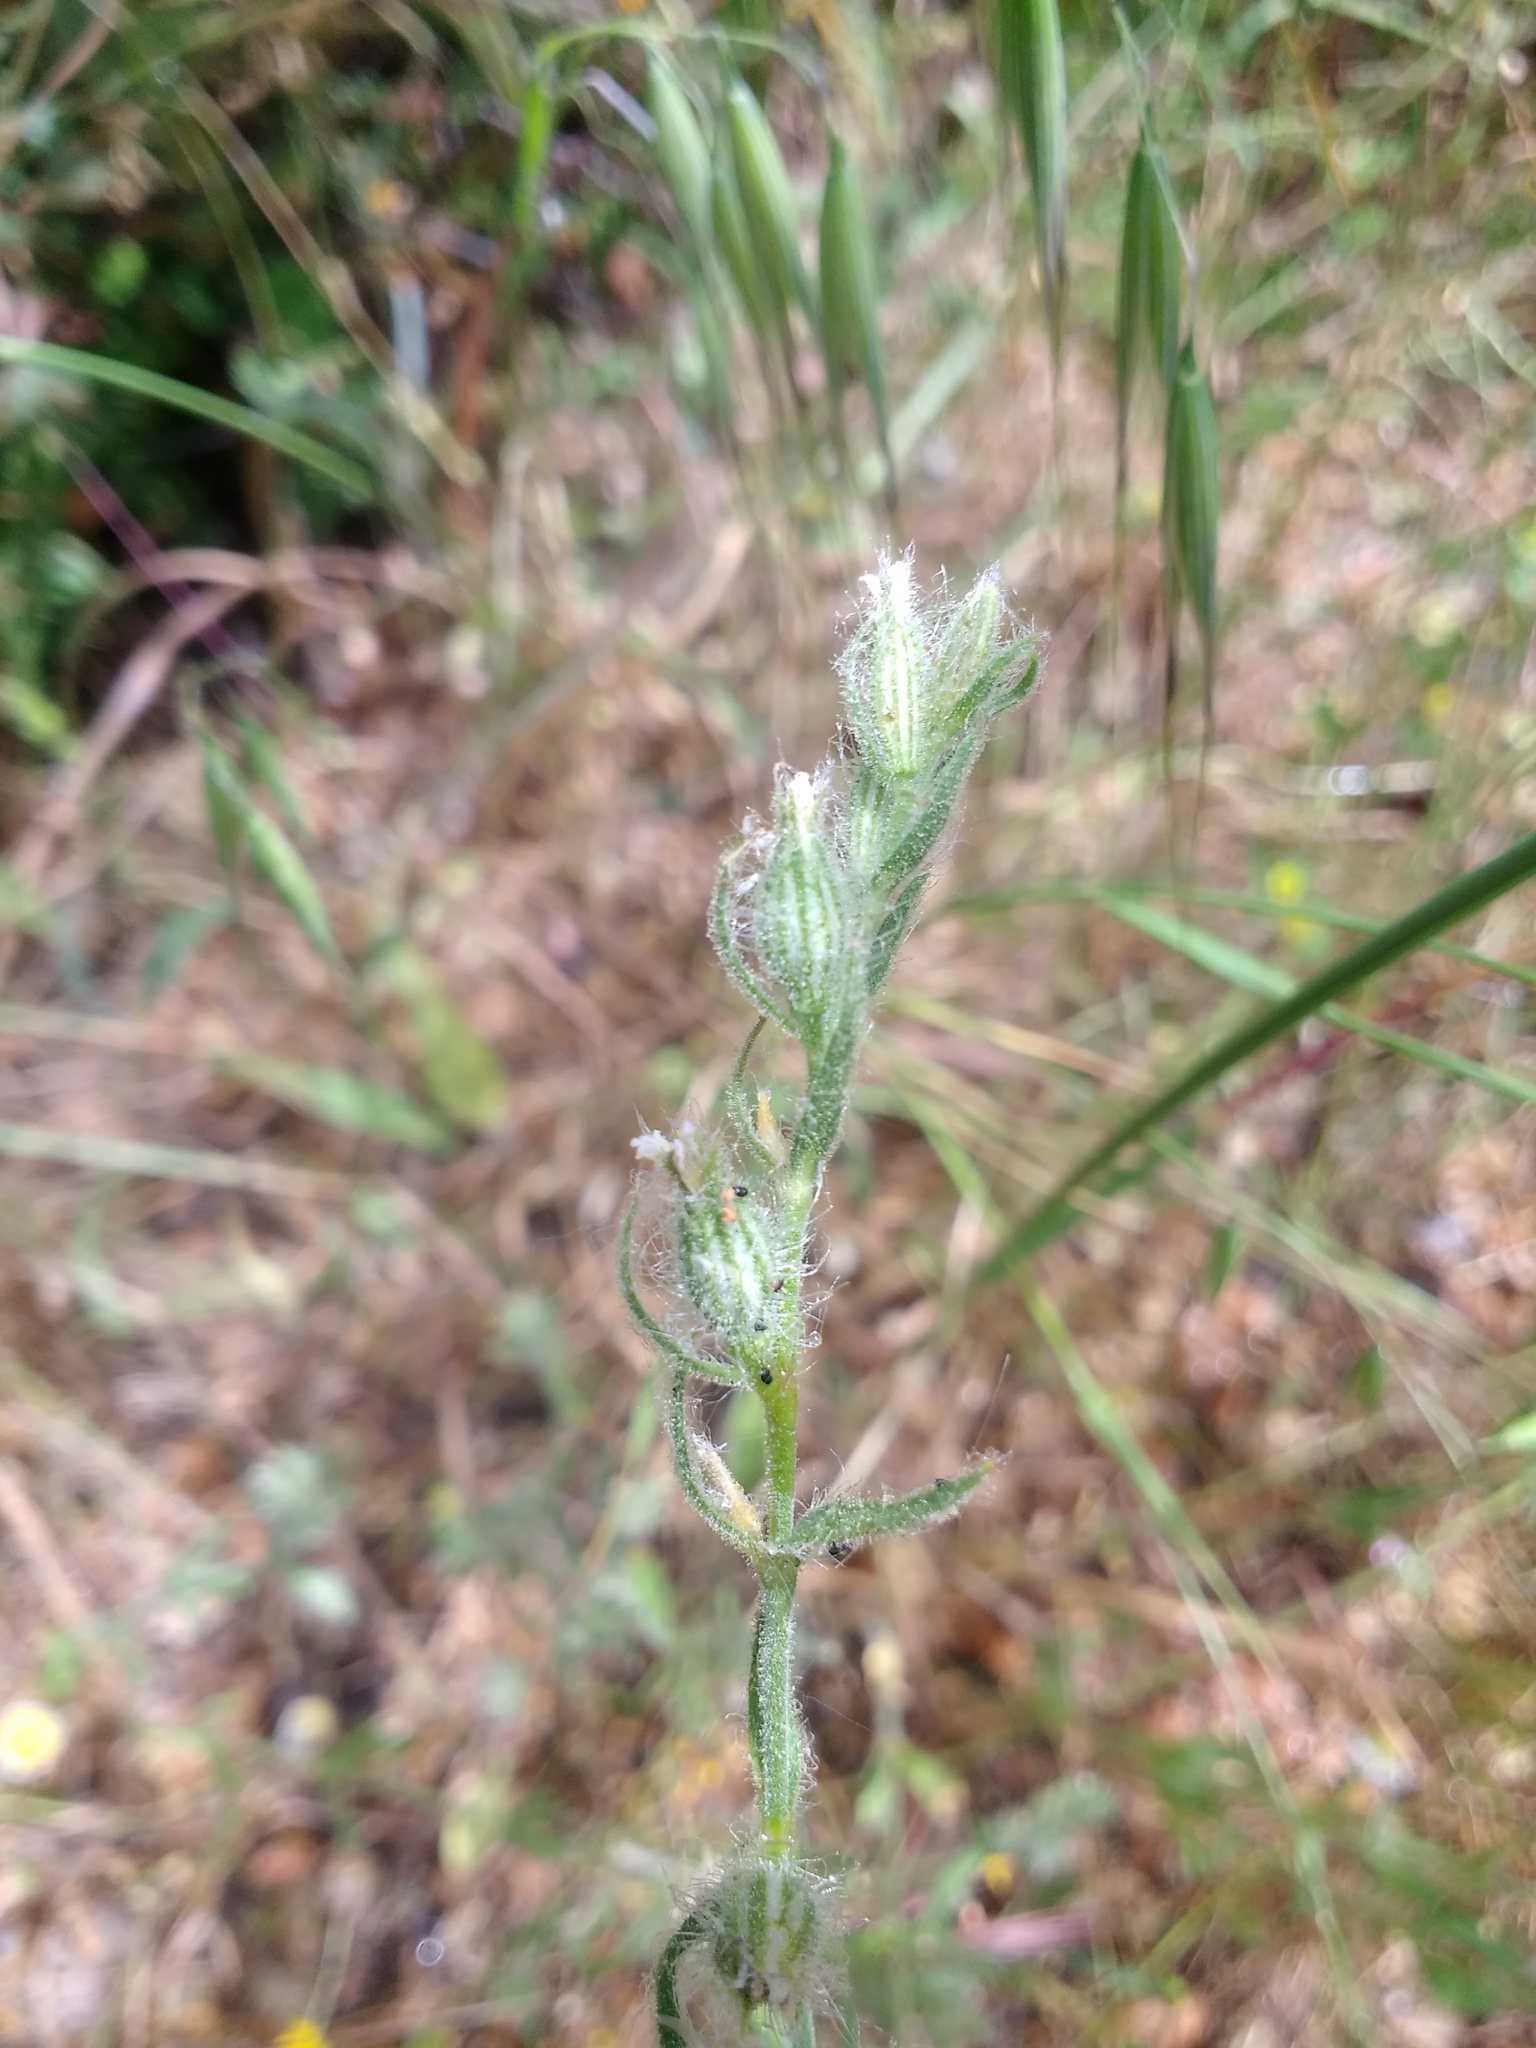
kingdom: Plantae
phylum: Tracheophyta
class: Magnoliopsida
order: Caryophyllales
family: Caryophyllaceae
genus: Silene
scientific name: Silene gallica
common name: Small-flowered catchfly
